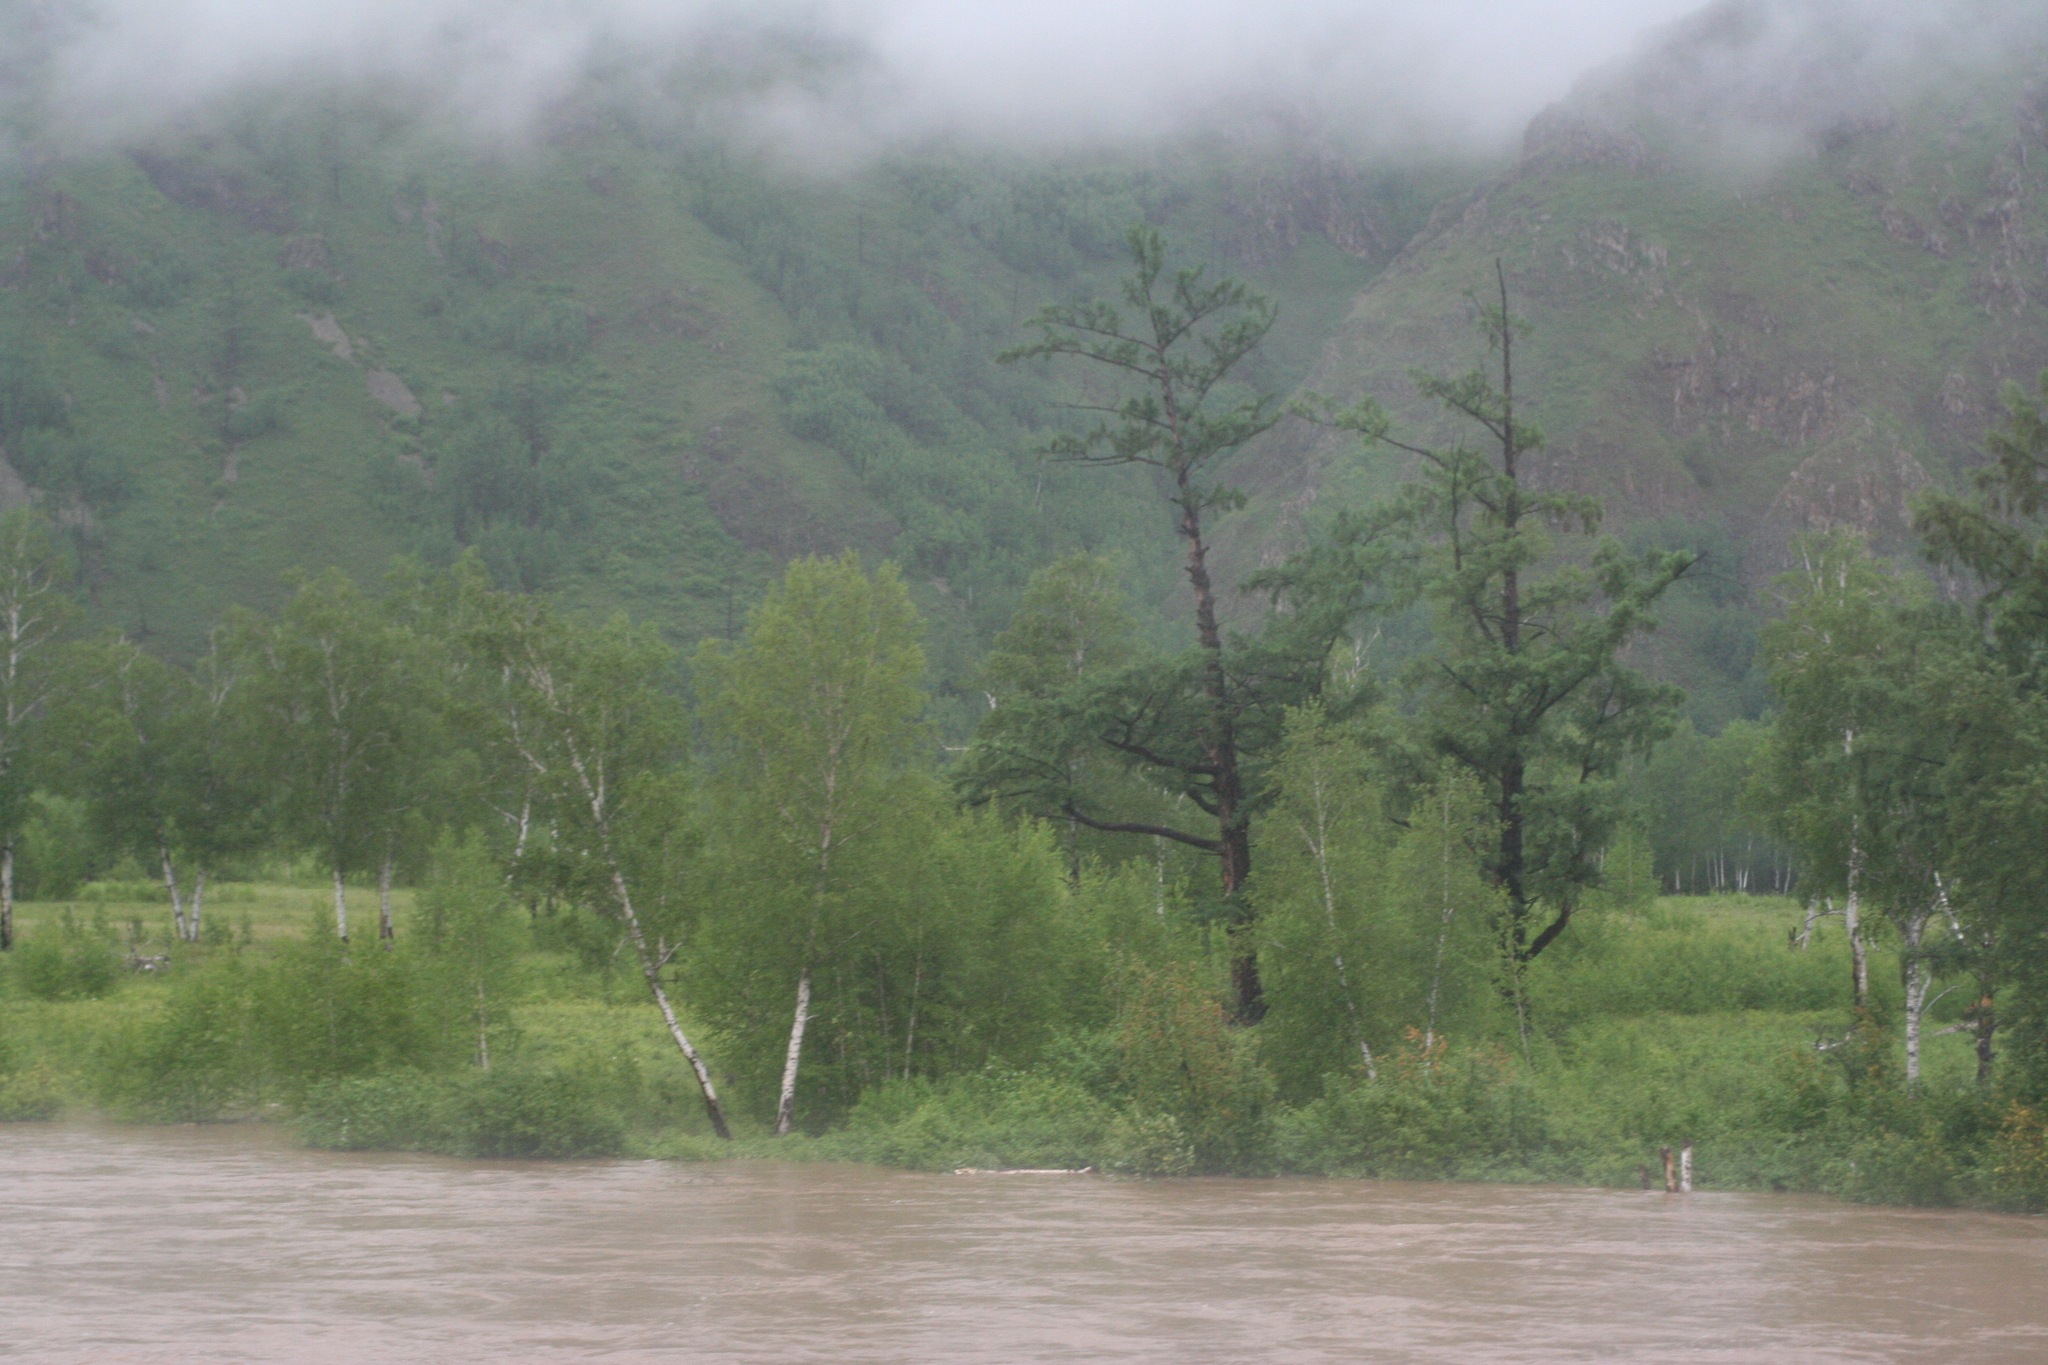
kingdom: Plantae
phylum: Tracheophyta
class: Pinopsida
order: Pinales
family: Pinaceae
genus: Larix
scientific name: Larix gmelinii
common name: Dahurian larch
